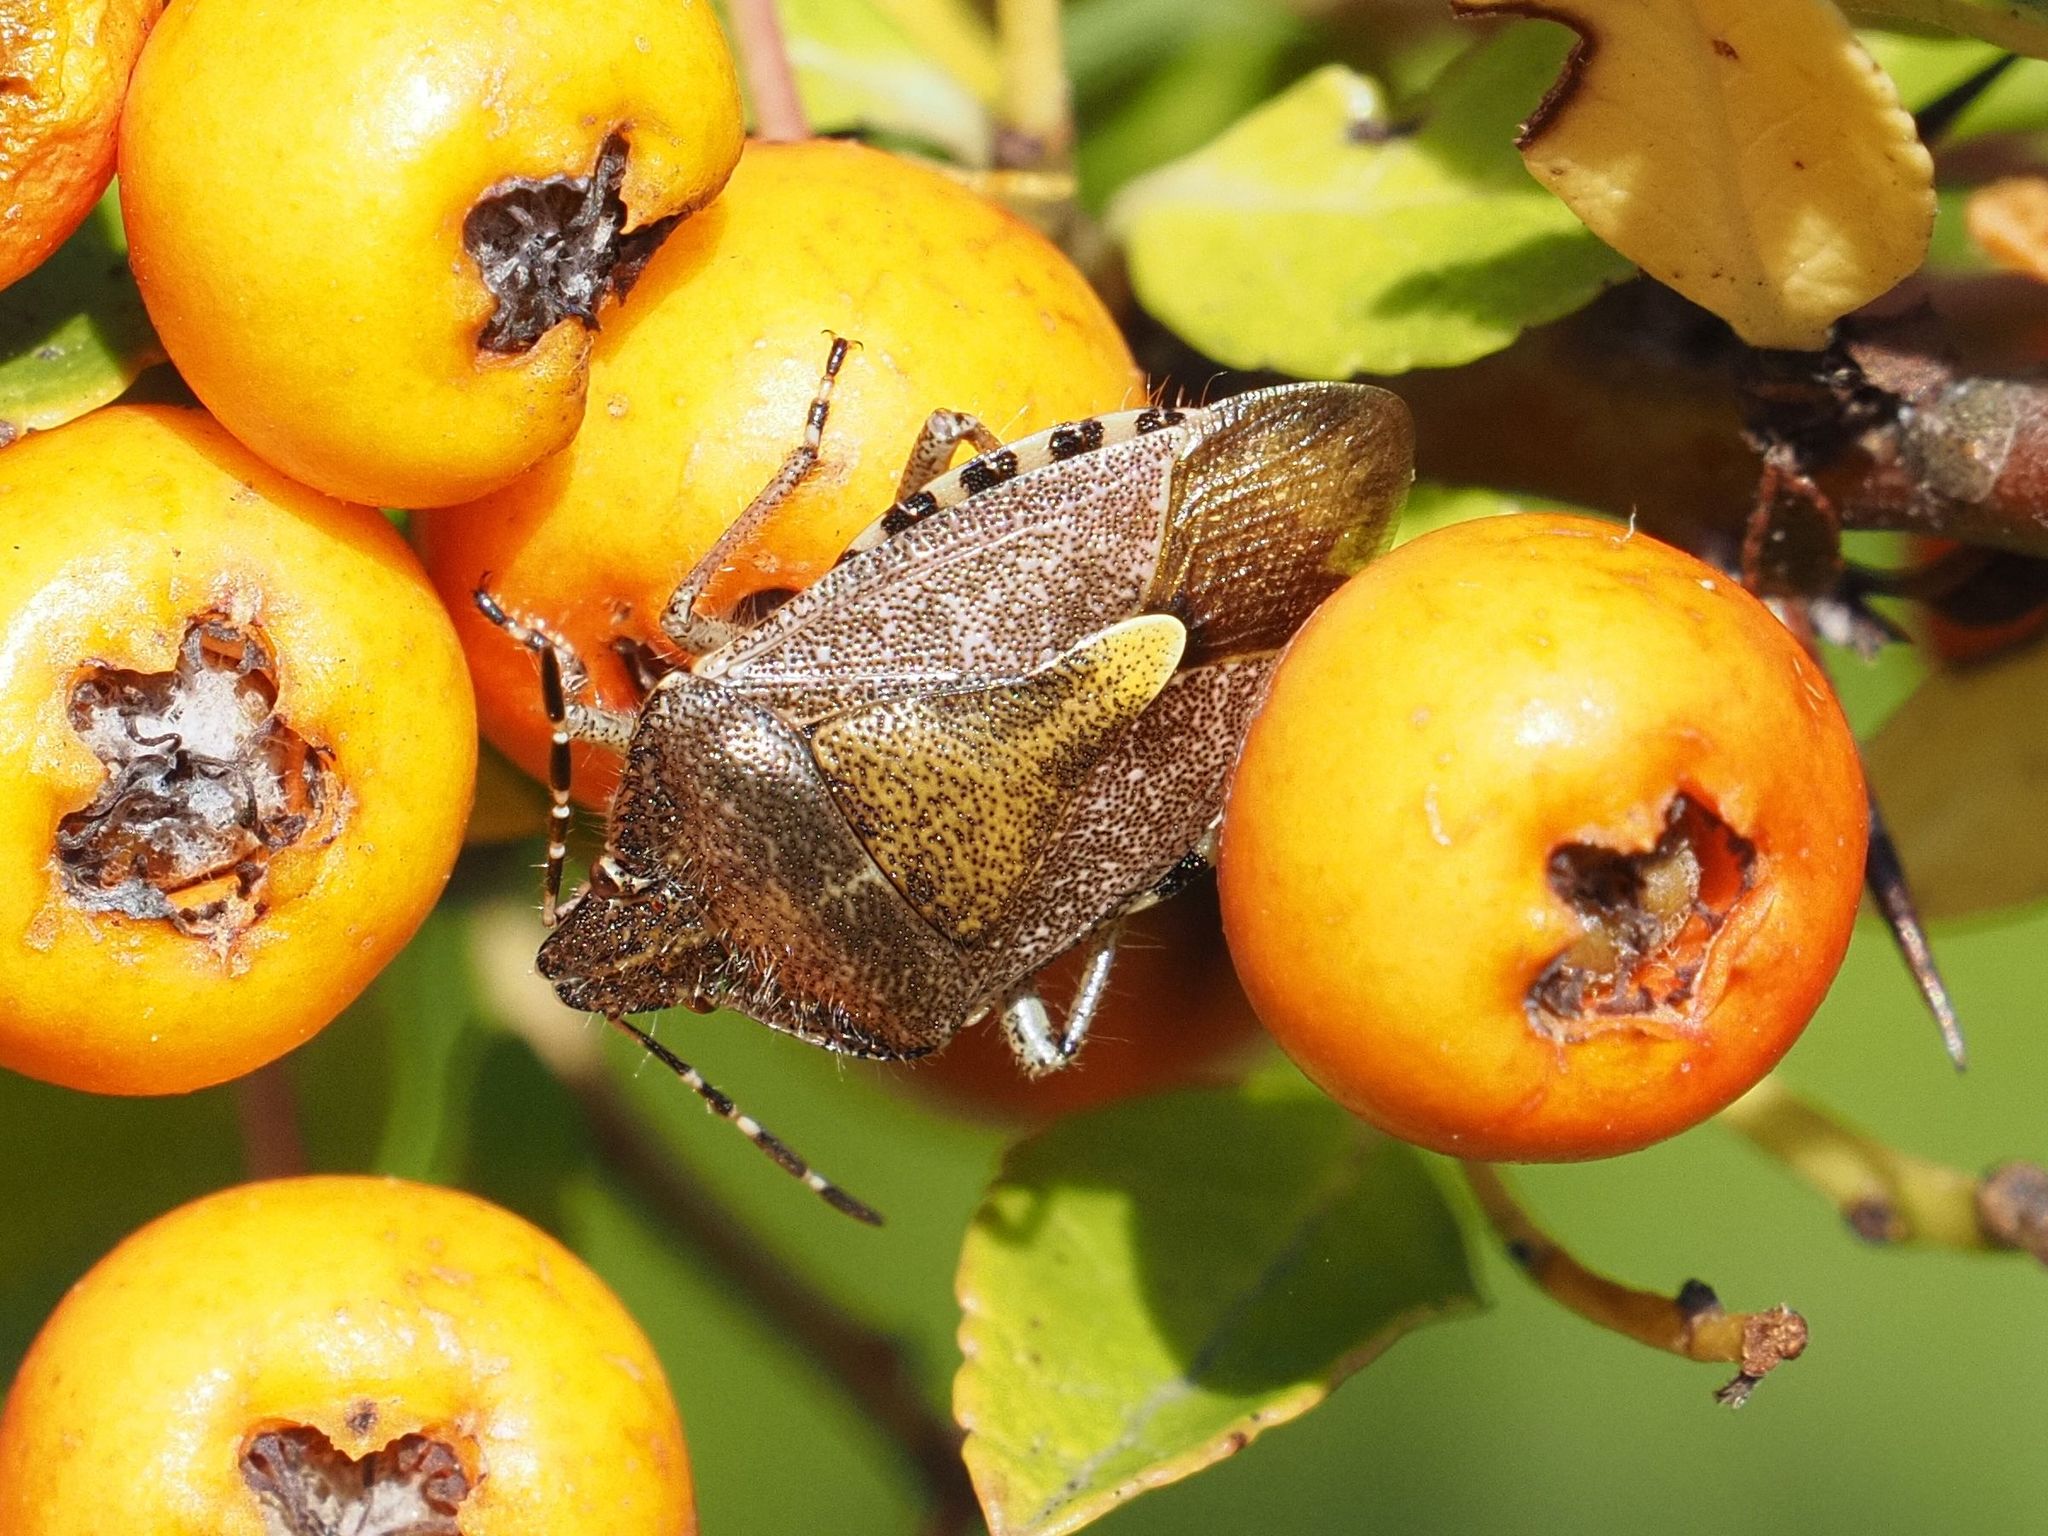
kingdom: Animalia
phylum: Arthropoda
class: Insecta
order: Hemiptera
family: Pentatomidae
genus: Dolycoris
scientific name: Dolycoris baccarum
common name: Sloe bug
